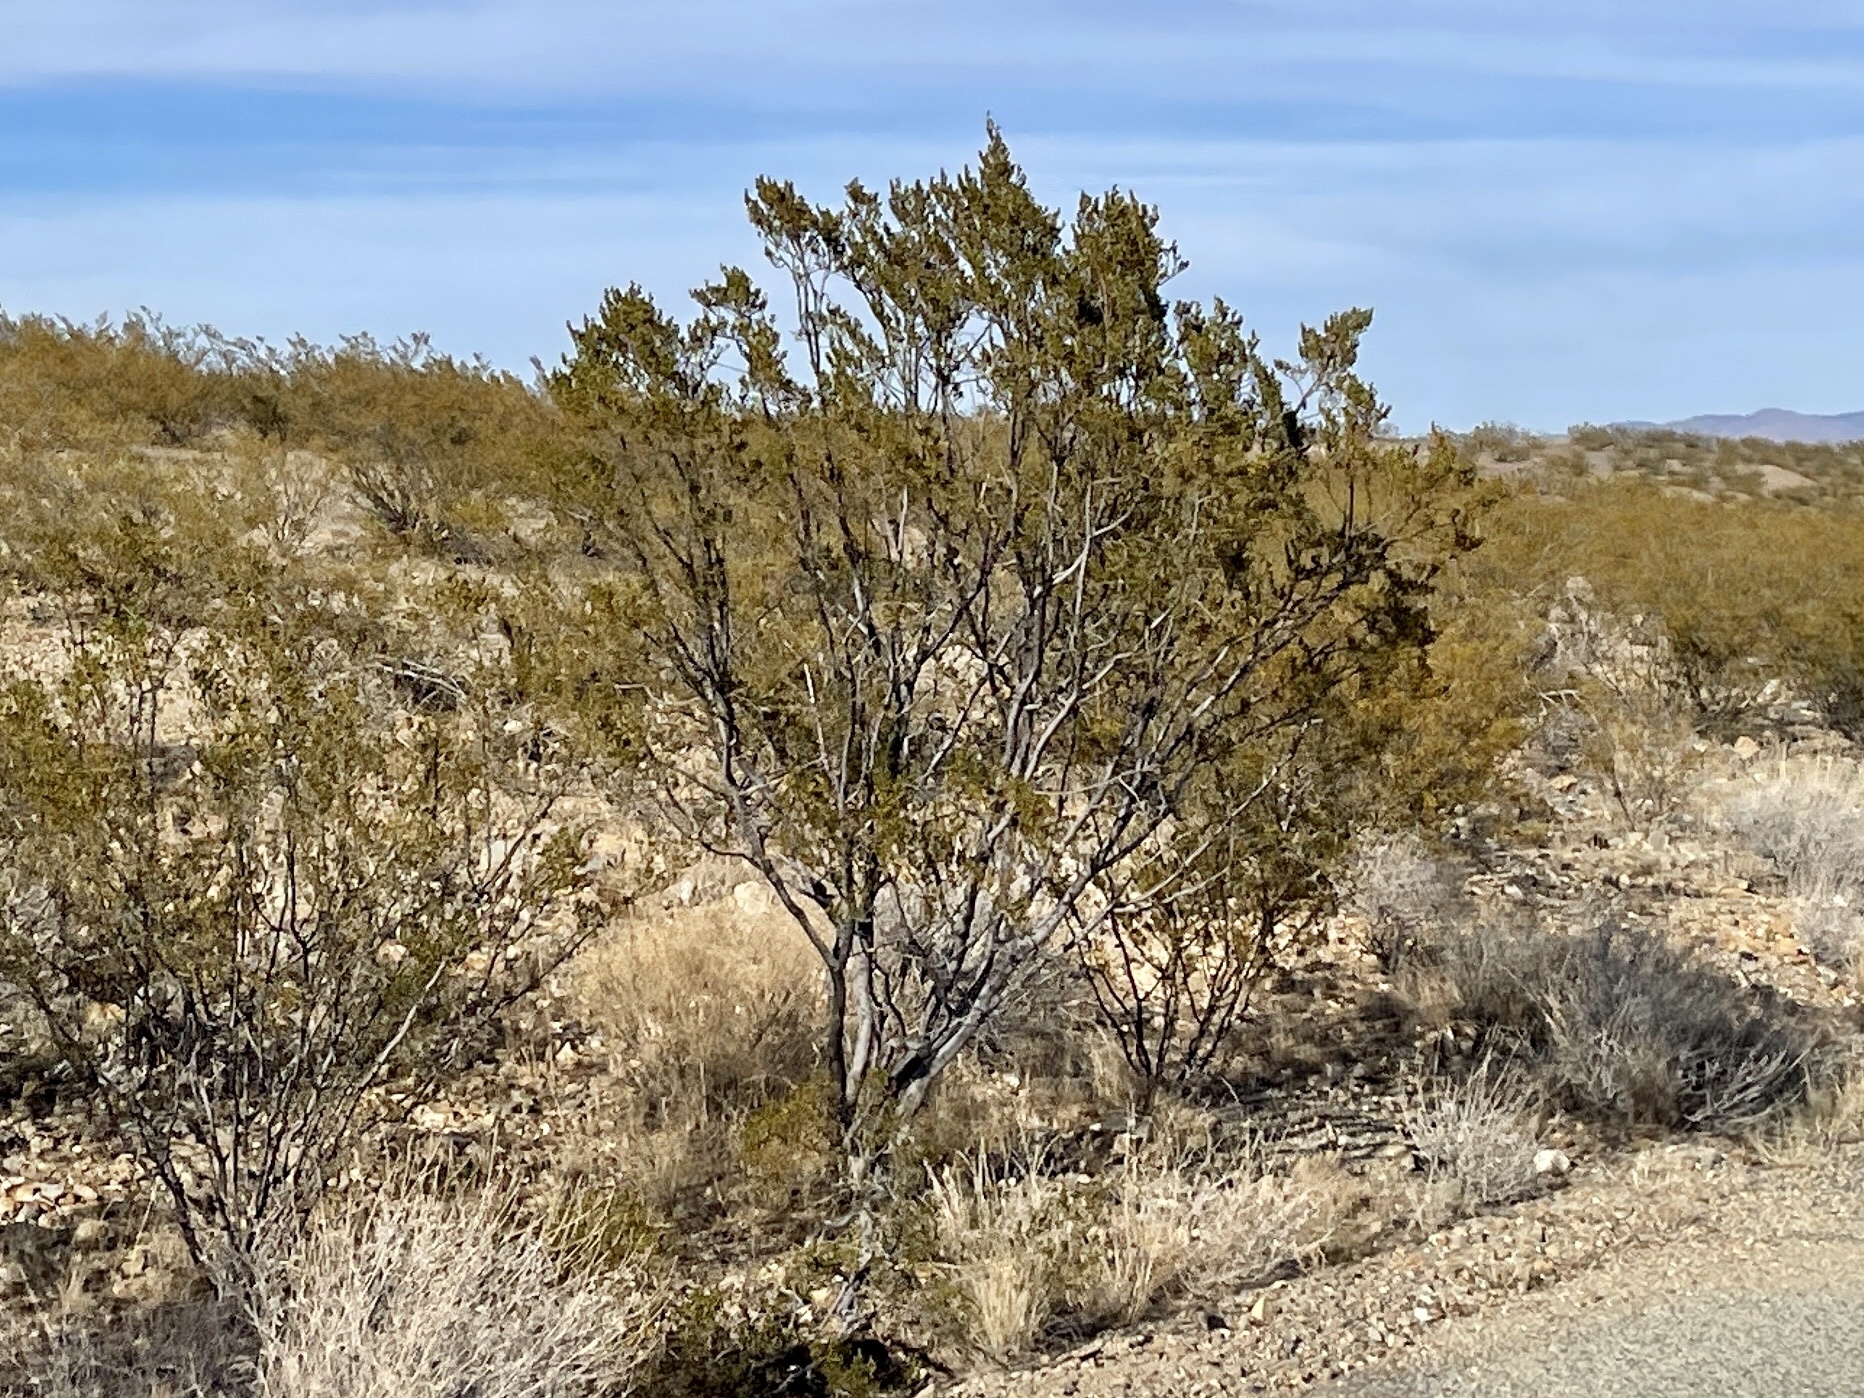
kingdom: Plantae
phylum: Tracheophyta
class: Magnoliopsida
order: Zygophyllales
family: Zygophyllaceae
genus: Larrea
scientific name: Larrea tridentata
